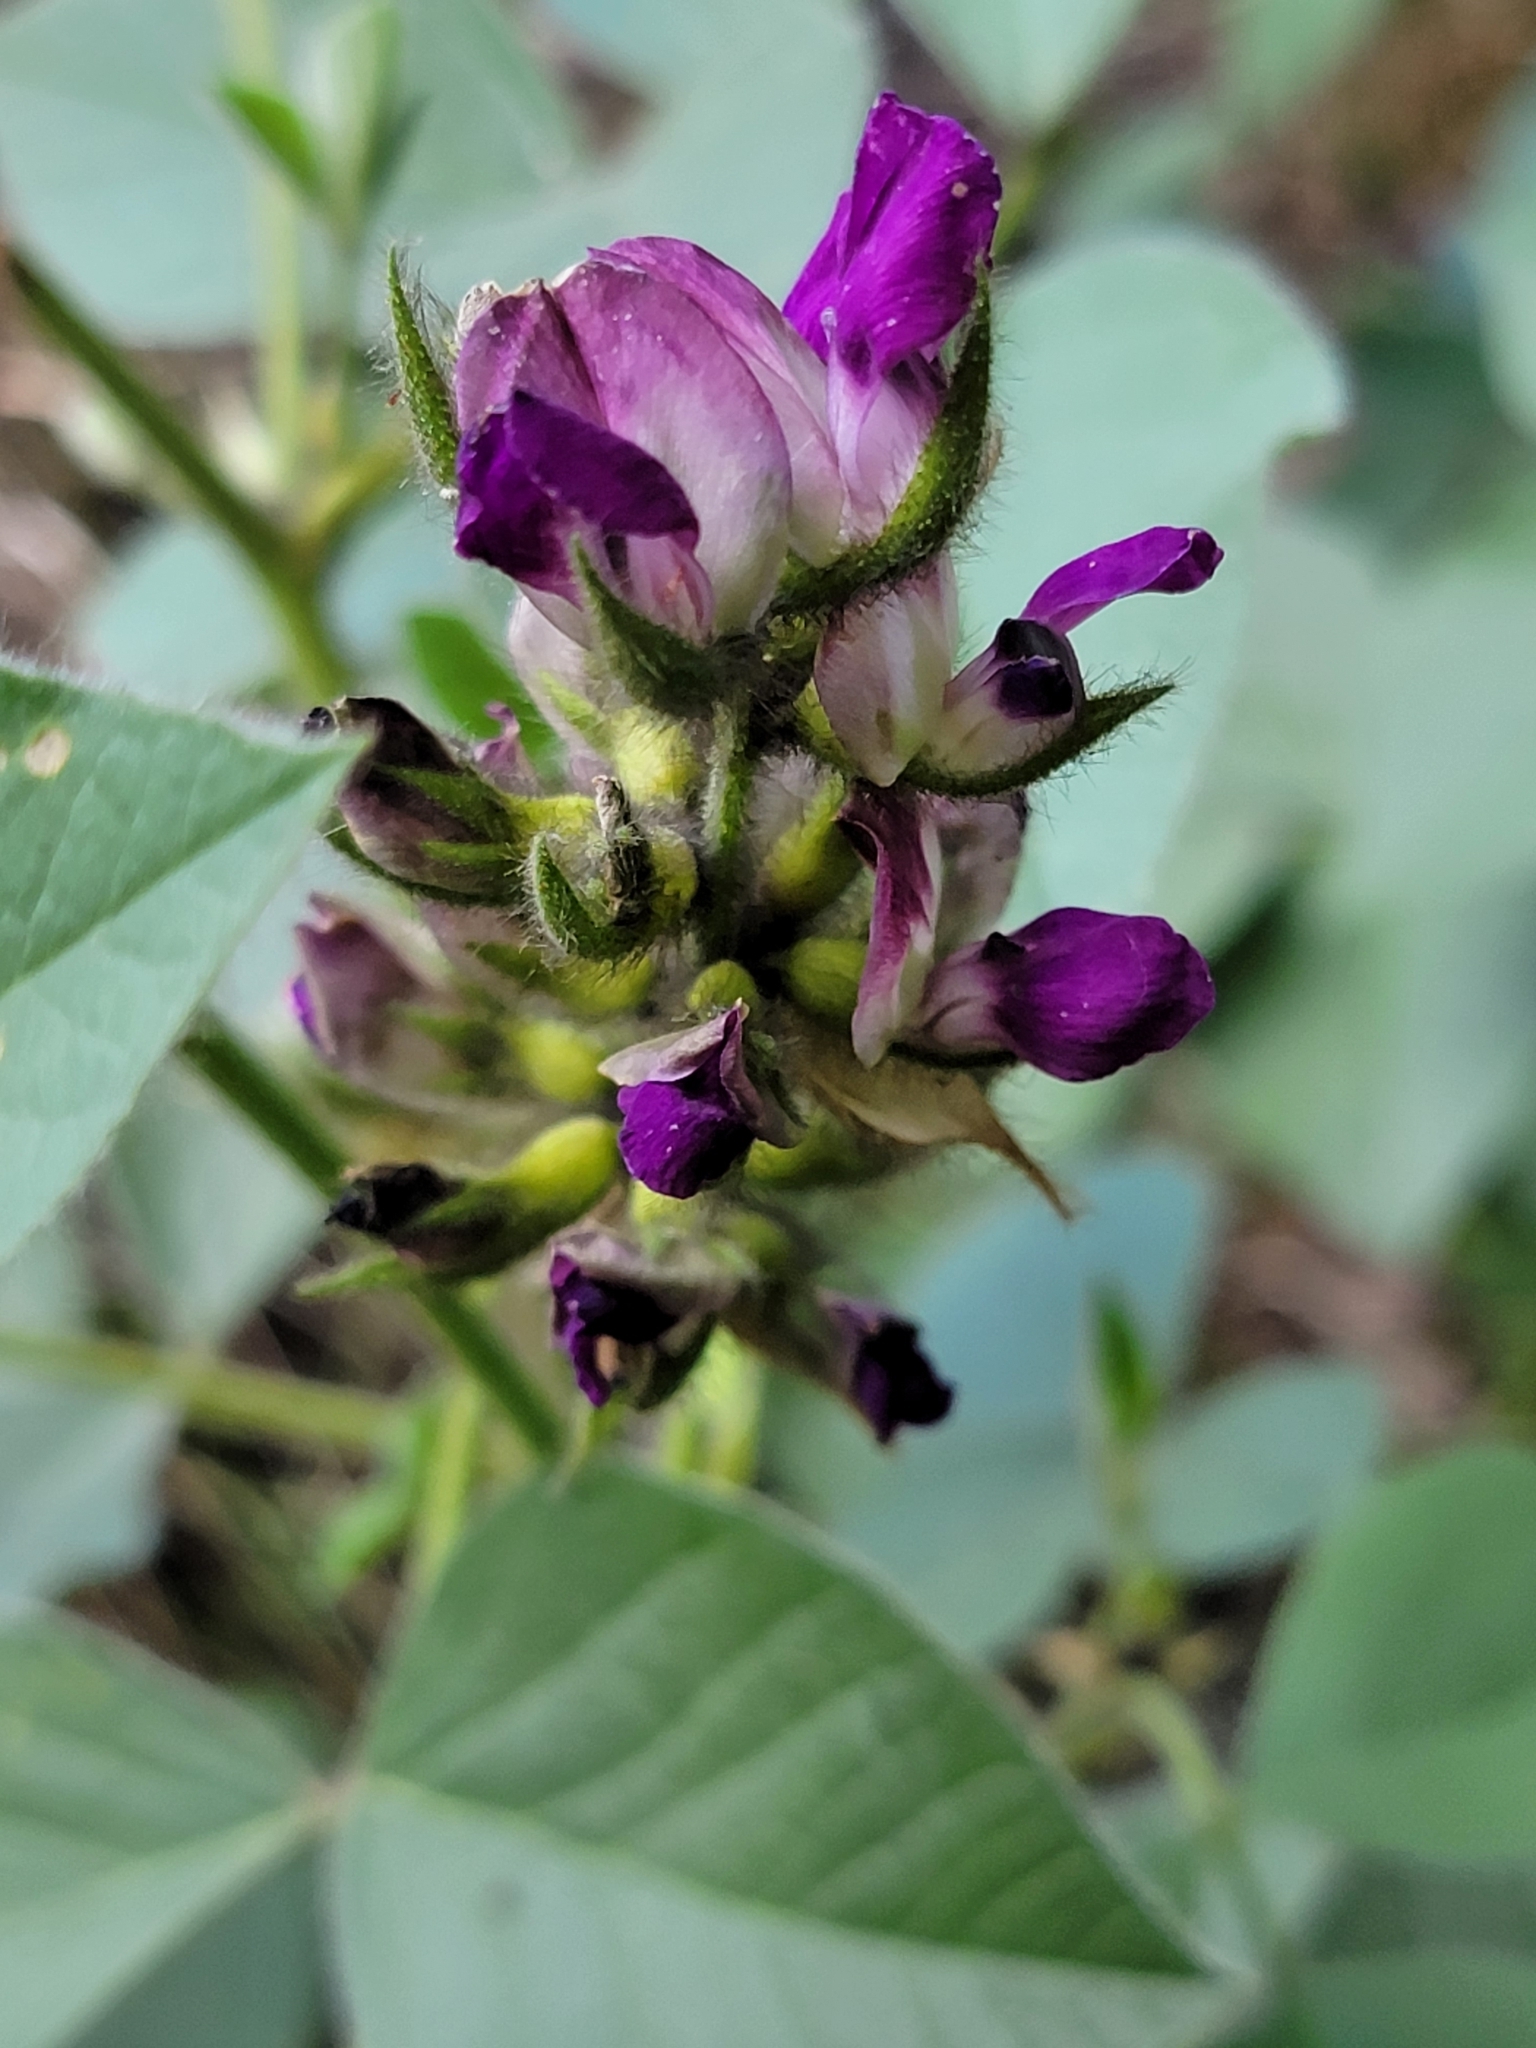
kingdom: Plantae
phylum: Tracheophyta
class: Magnoliopsida
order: Fabales
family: Fabaceae
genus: Hoita
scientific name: Hoita strobilina
